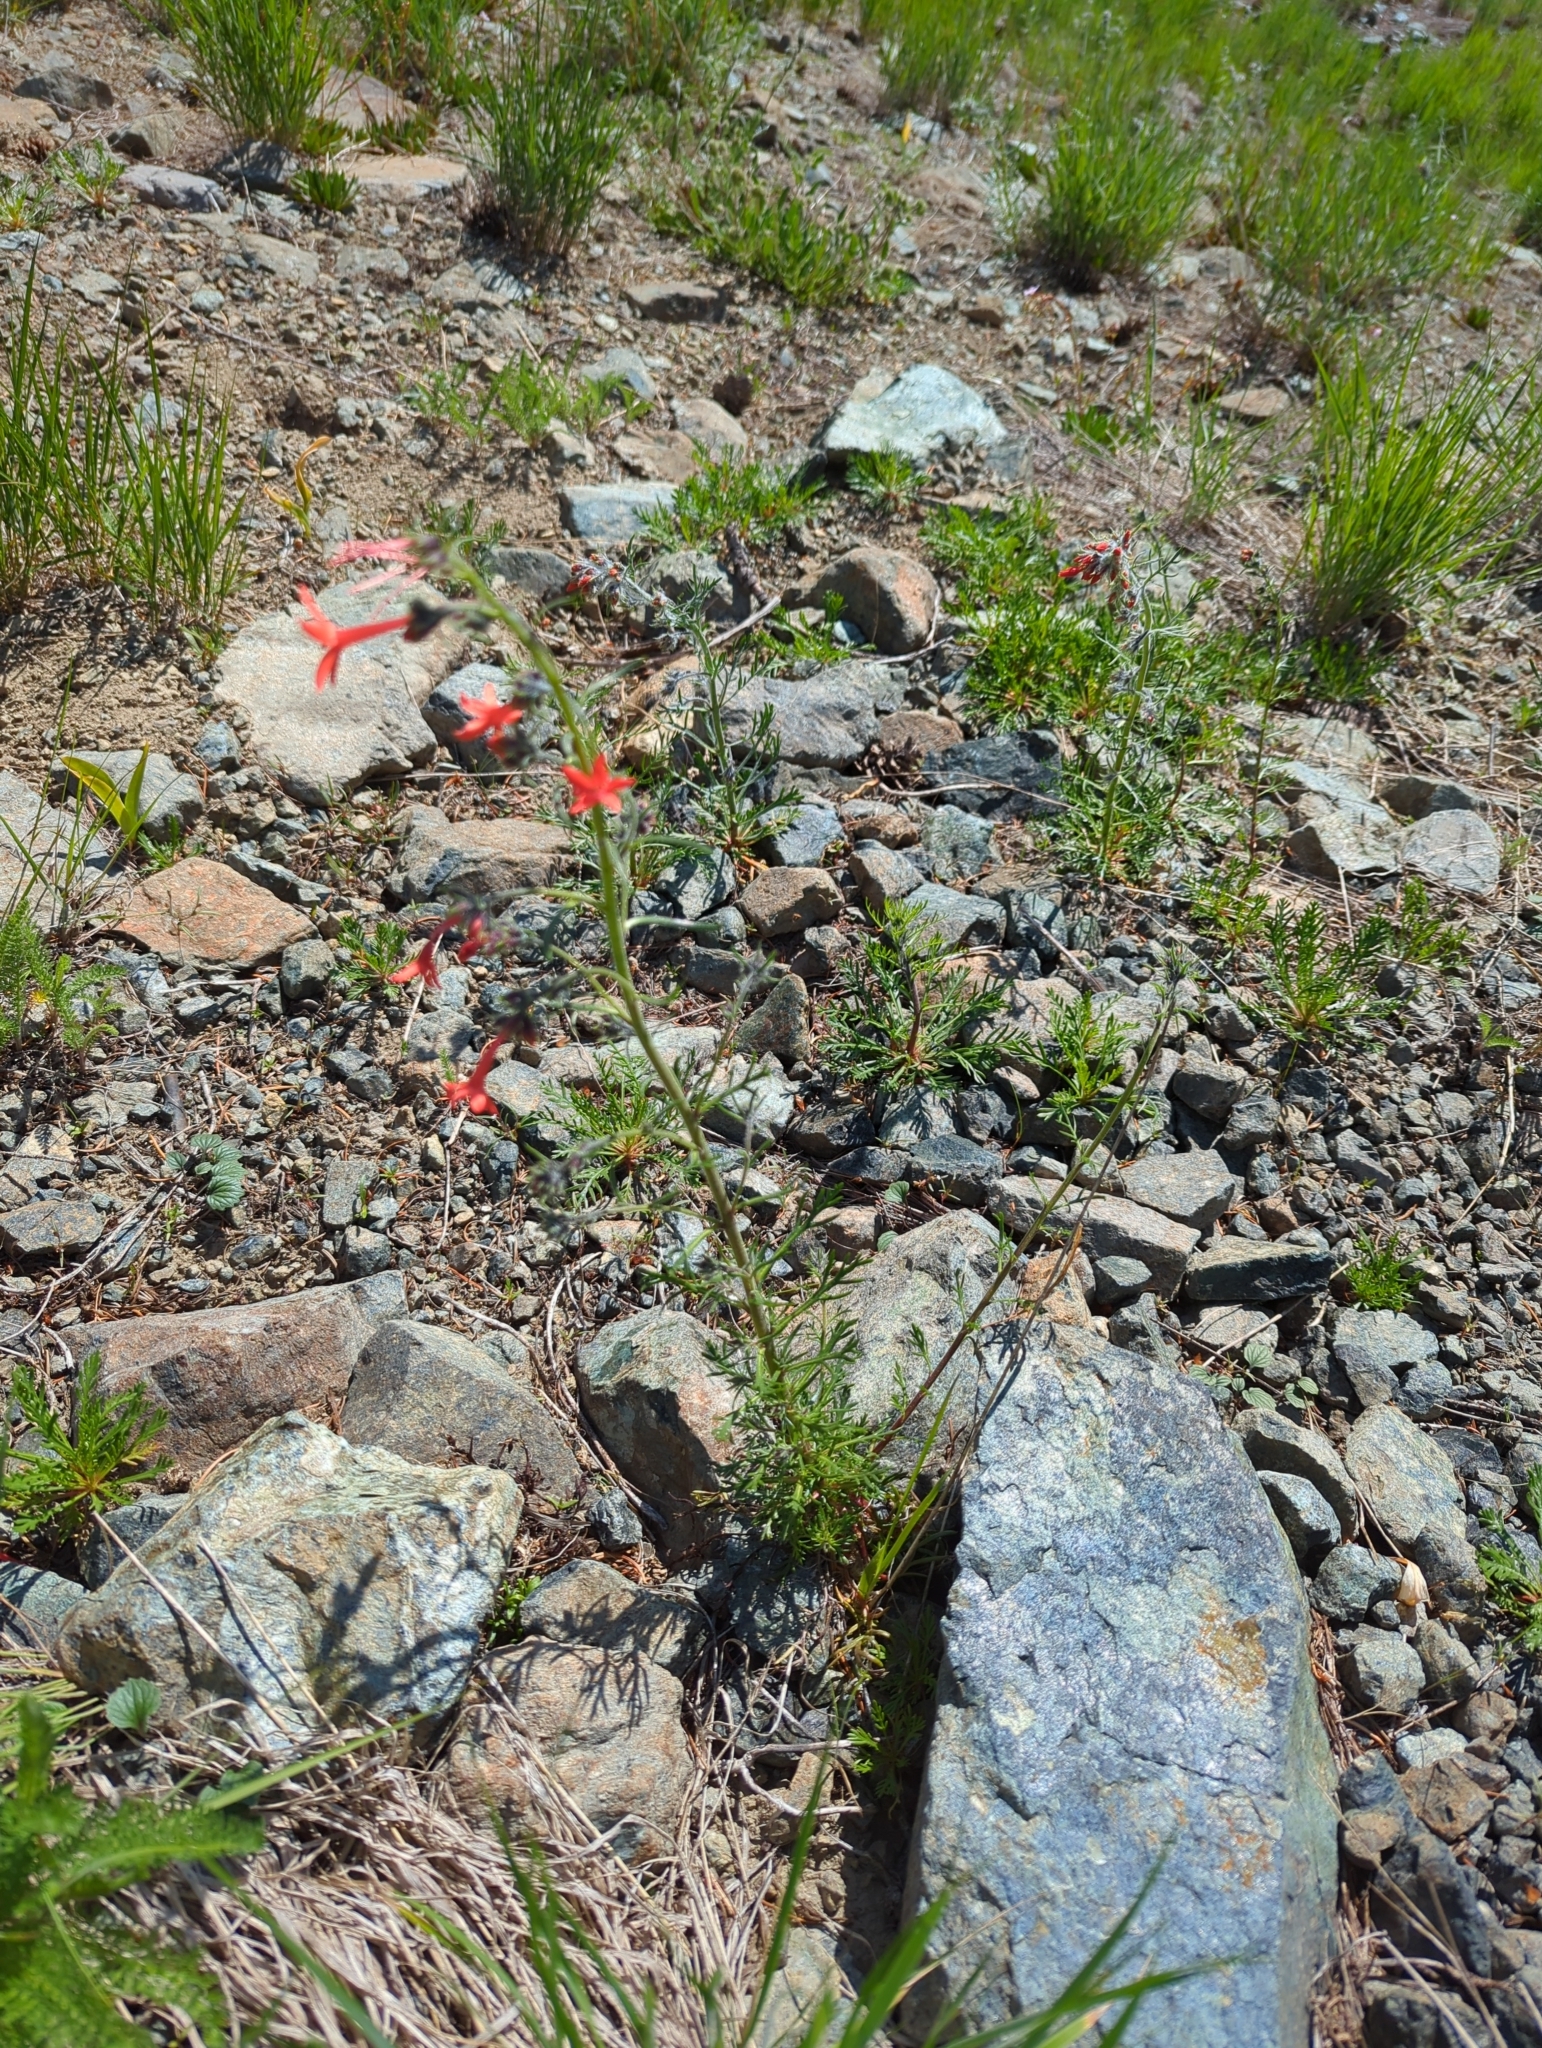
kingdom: Plantae
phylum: Tracheophyta
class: Magnoliopsida
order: Ericales
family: Polemoniaceae
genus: Ipomopsis
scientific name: Ipomopsis aggregata
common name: Scarlet gilia
